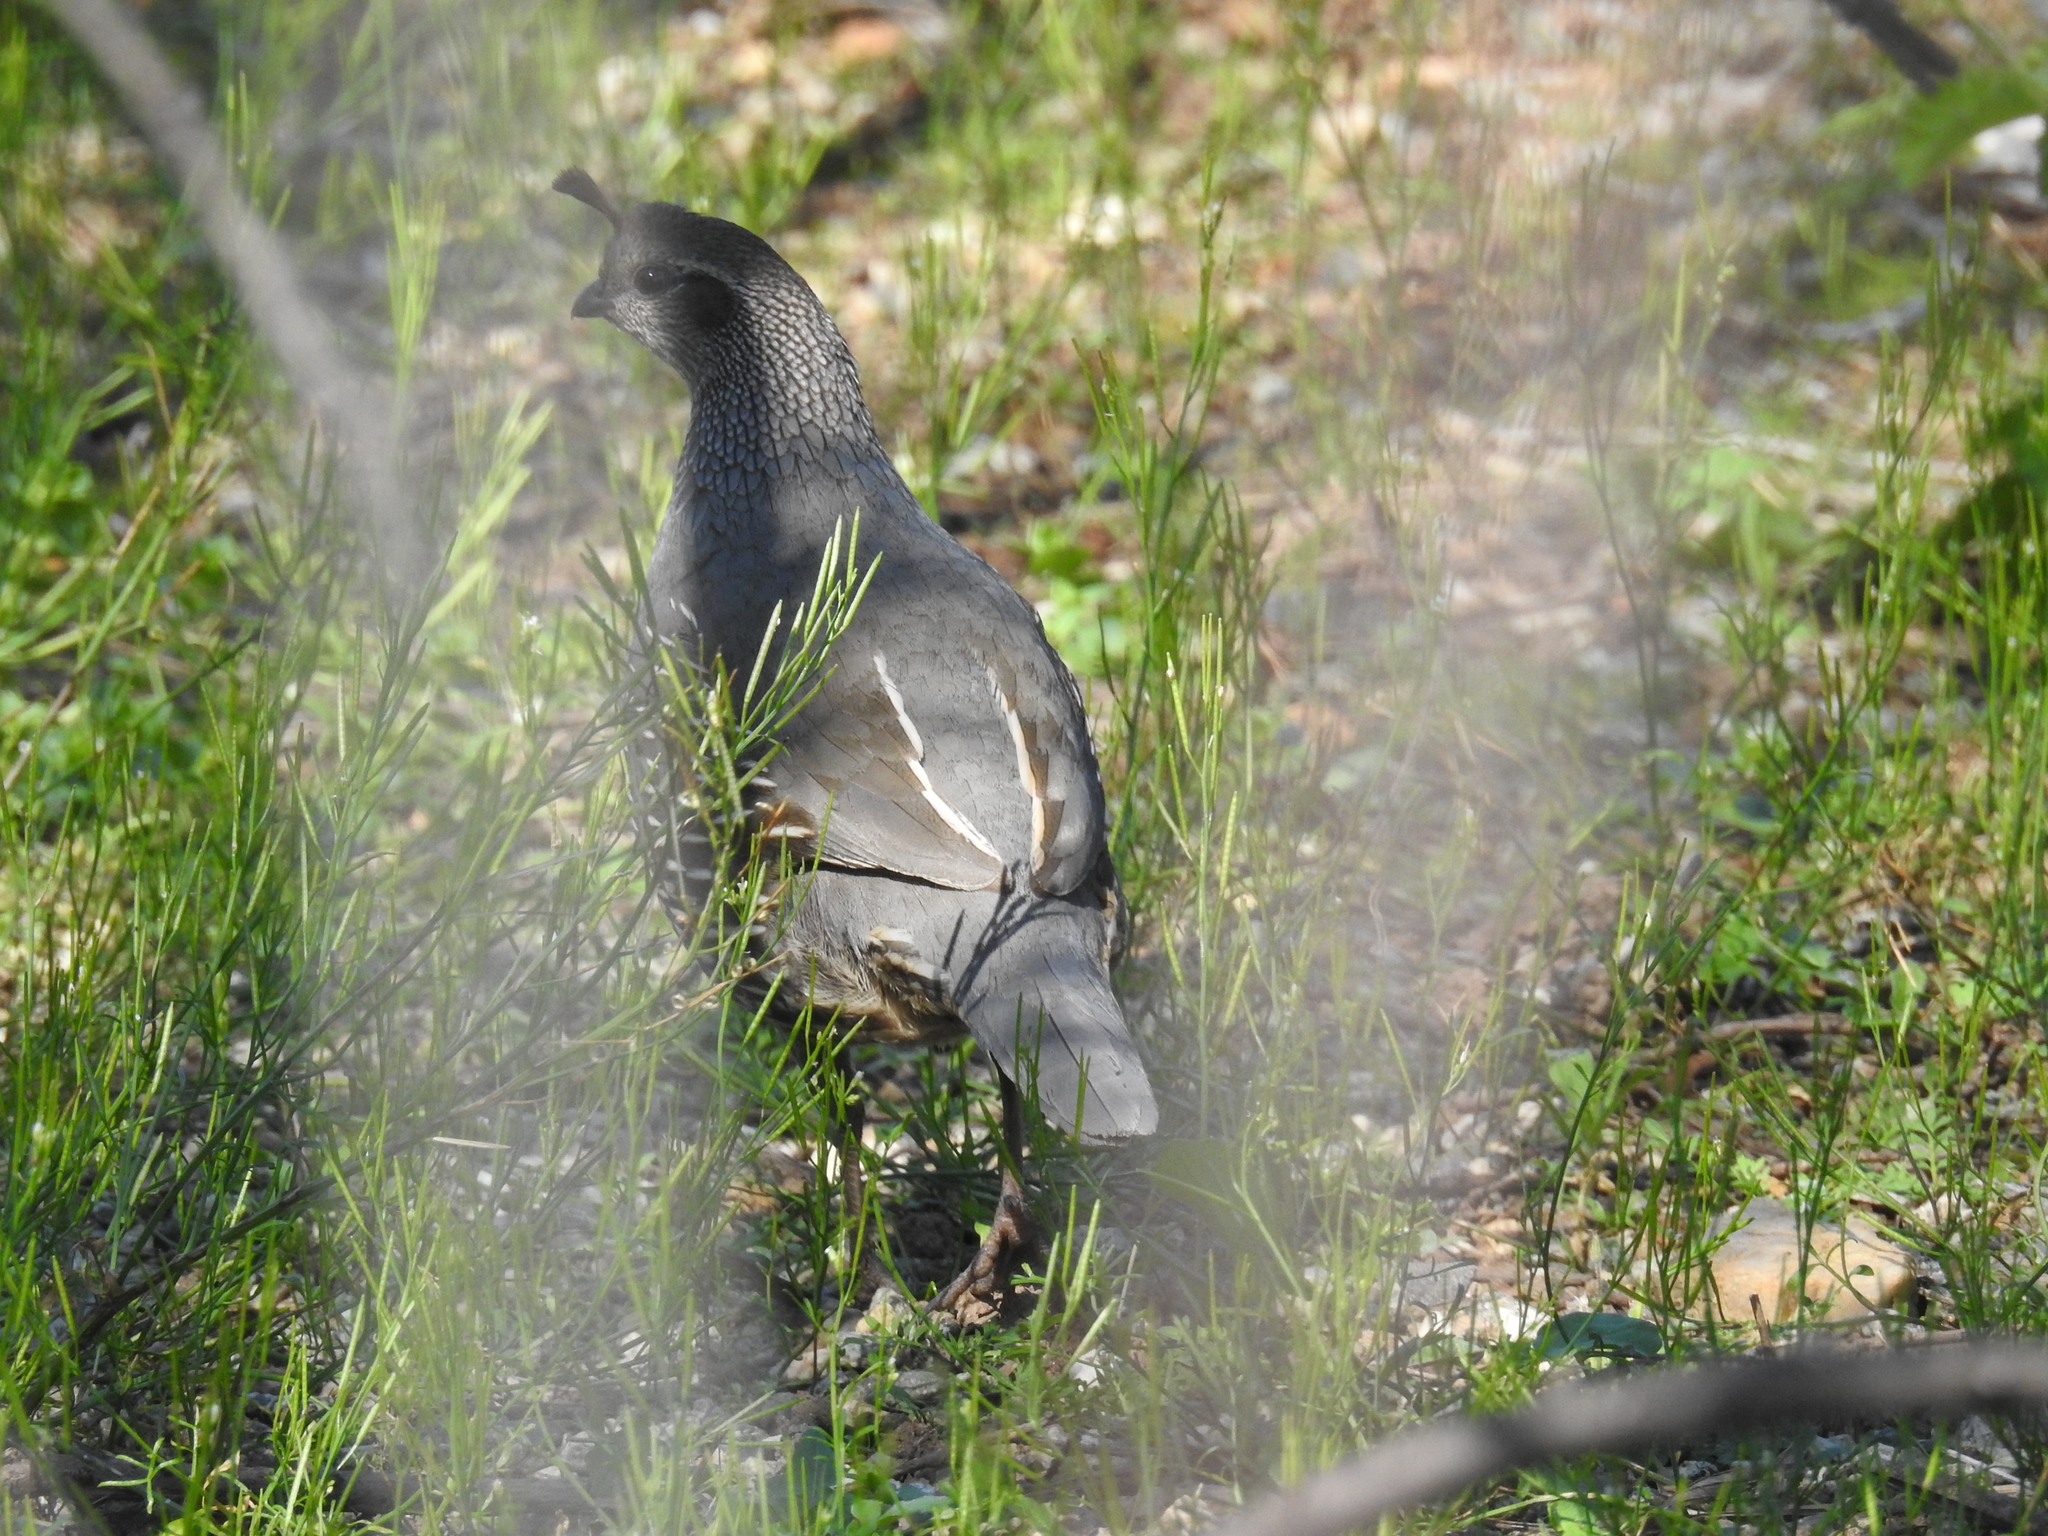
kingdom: Animalia
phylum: Chordata
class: Aves
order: Galliformes
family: Odontophoridae
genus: Callipepla
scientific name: Callipepla californica
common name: California quail
